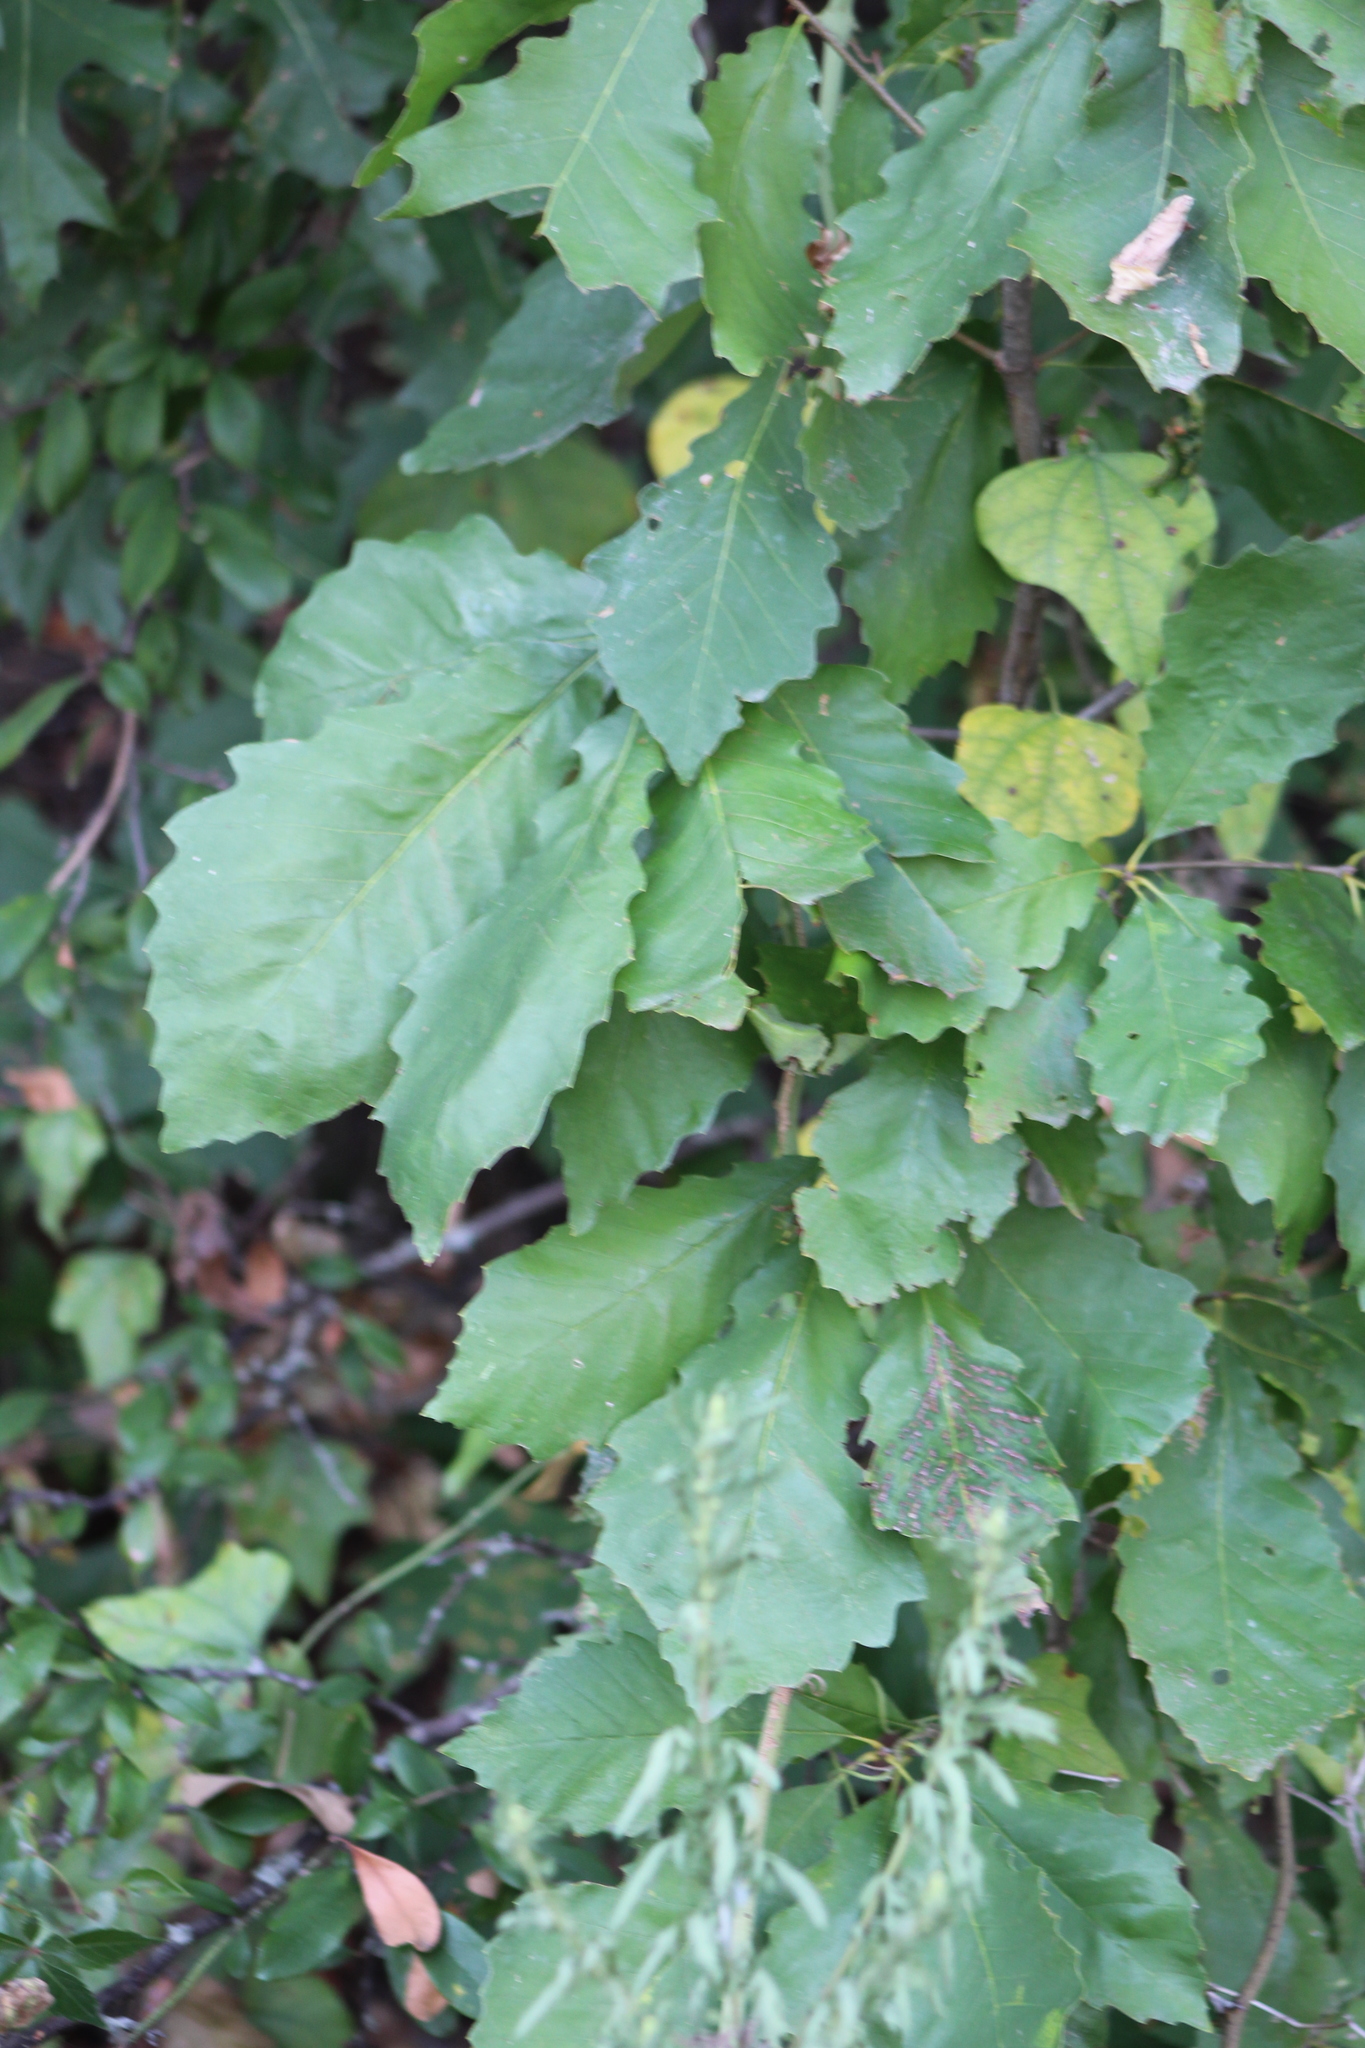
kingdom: Plantae
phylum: Tracheophyta
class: Magnoliopsida
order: Fagales
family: Fagaceae
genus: Quercus
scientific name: Quercus muehlenbergii
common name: Chinkapin oak
